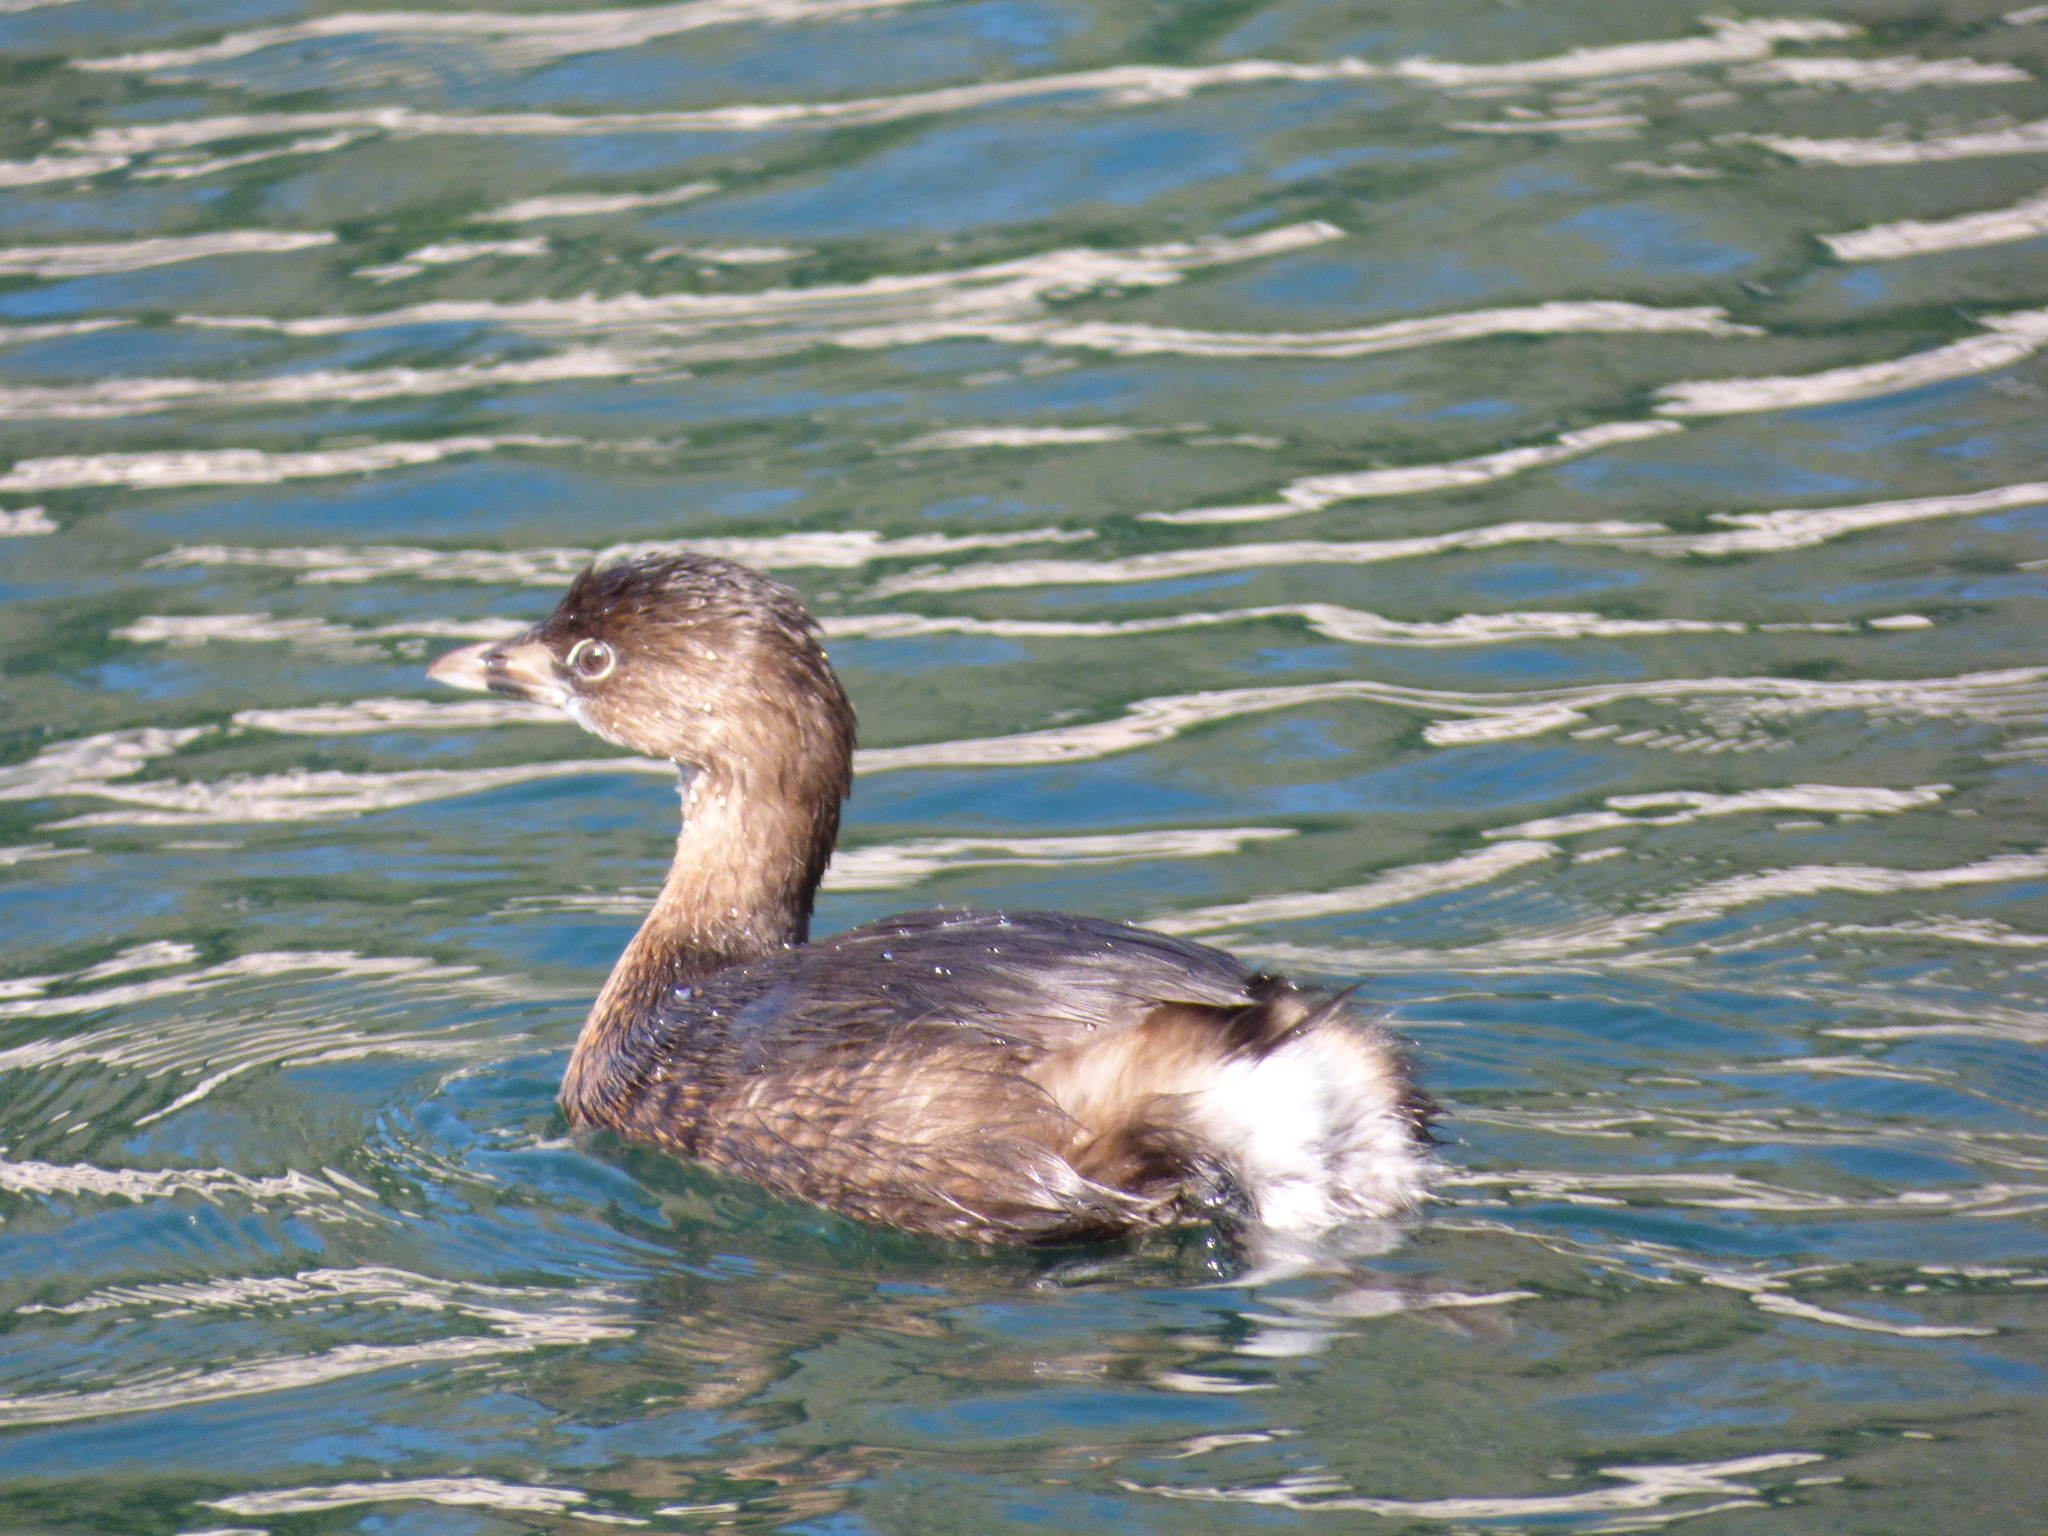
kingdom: Animalia
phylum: Chordata
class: Aves
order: Podicipediformes
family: Podicipedidae
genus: Podilymbus
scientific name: Podilymbus podiceps
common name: Pied-billed grebe
